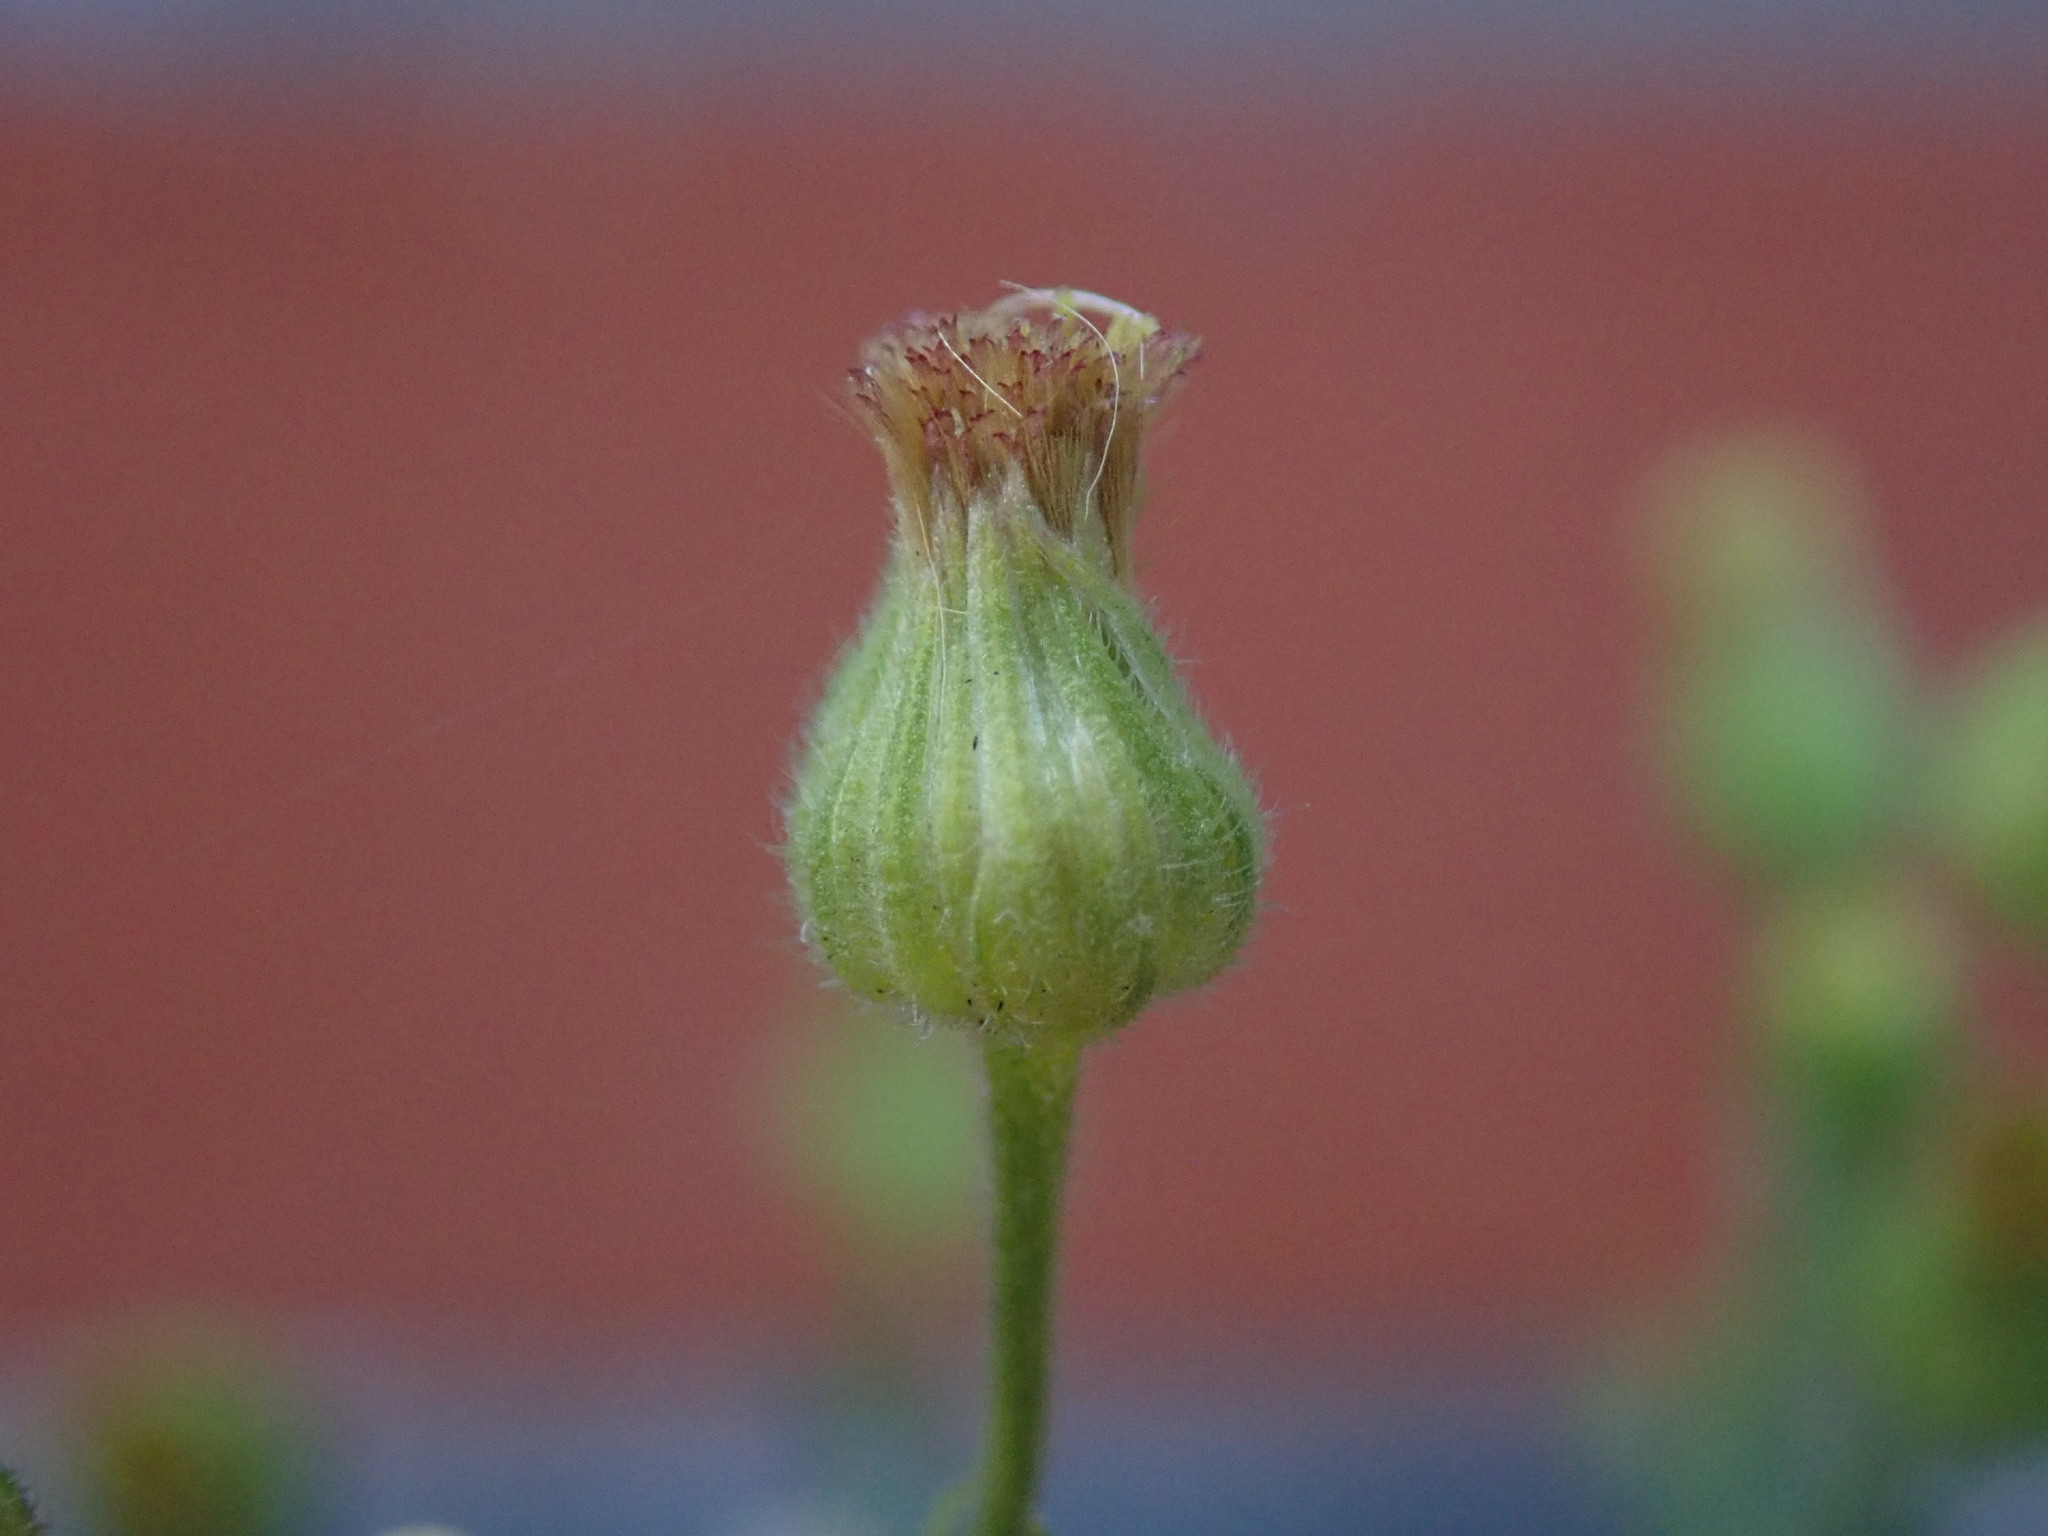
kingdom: Plantae
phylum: Tracheophyta
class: Magnoliopsida
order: Asterales
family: Asteraceae
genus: Erigeron
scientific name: Erigeron sumatrensis
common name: Daisy
